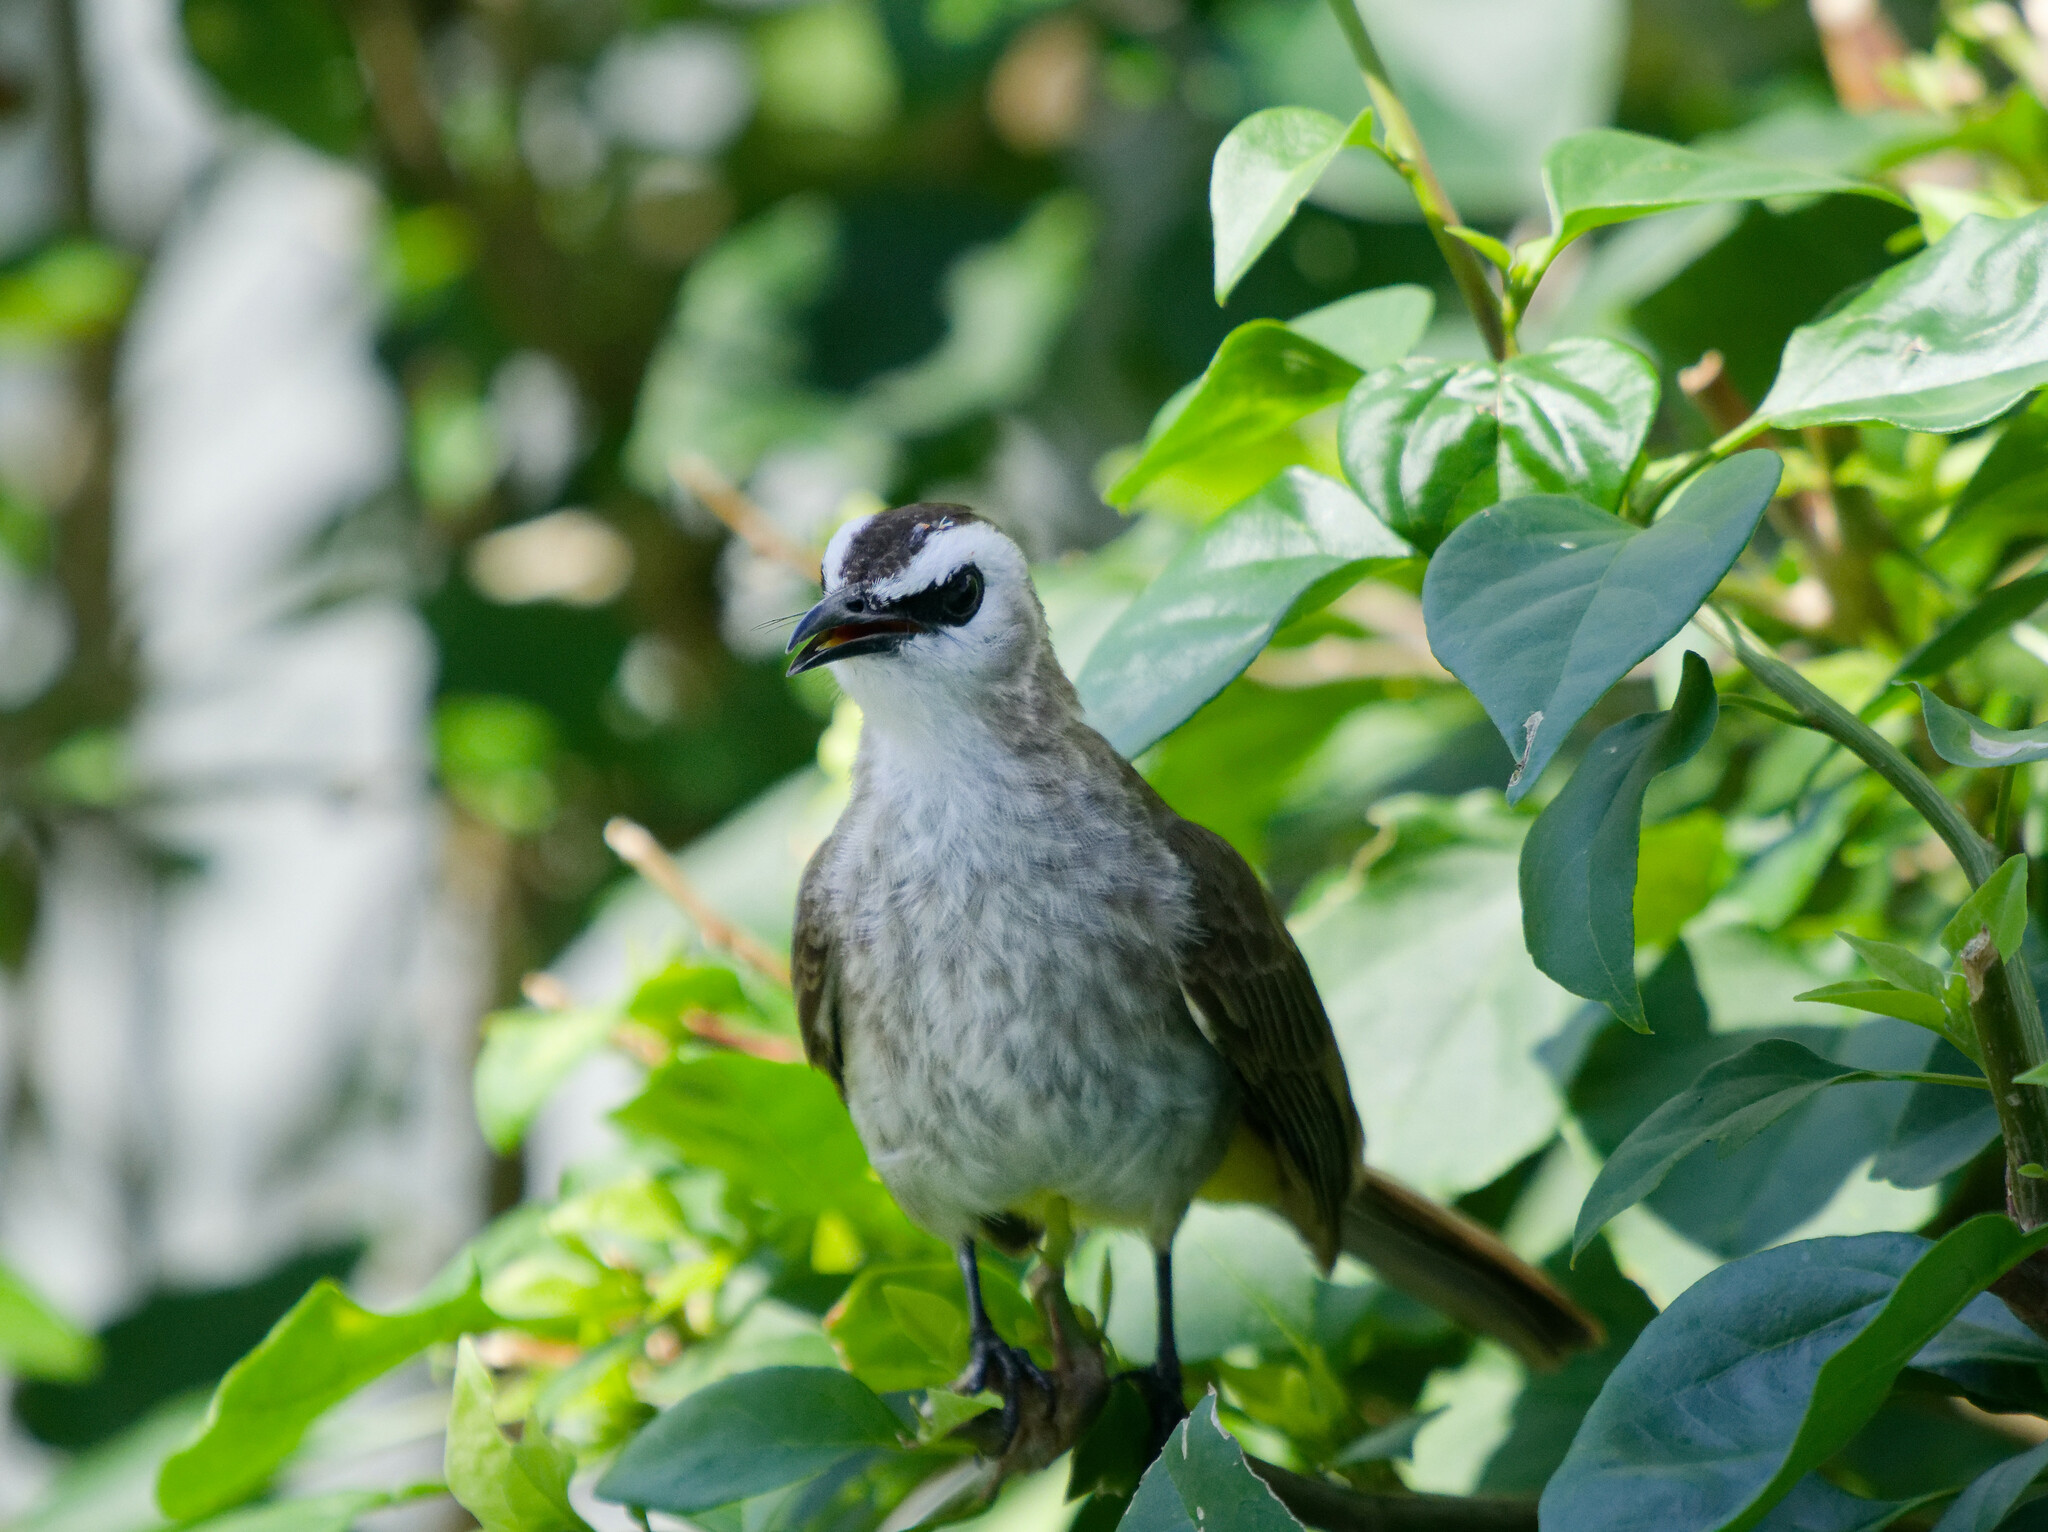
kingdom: Animalia
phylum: Chordata
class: Aves
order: Passeriformes
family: Pycnonotidae
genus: Pycnonotus
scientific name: Pycnonotus goiavier
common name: Yellow-vented bulbul
